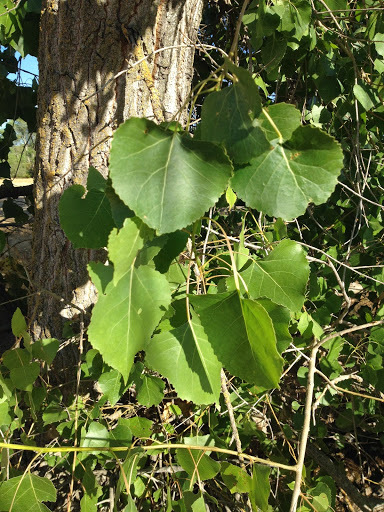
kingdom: Plantae
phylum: Tracheophyta
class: Magnoliopsida
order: Malpighiales
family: Salicaceae
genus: Populus
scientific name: Populus fremontii
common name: Fremont's cottonwood
